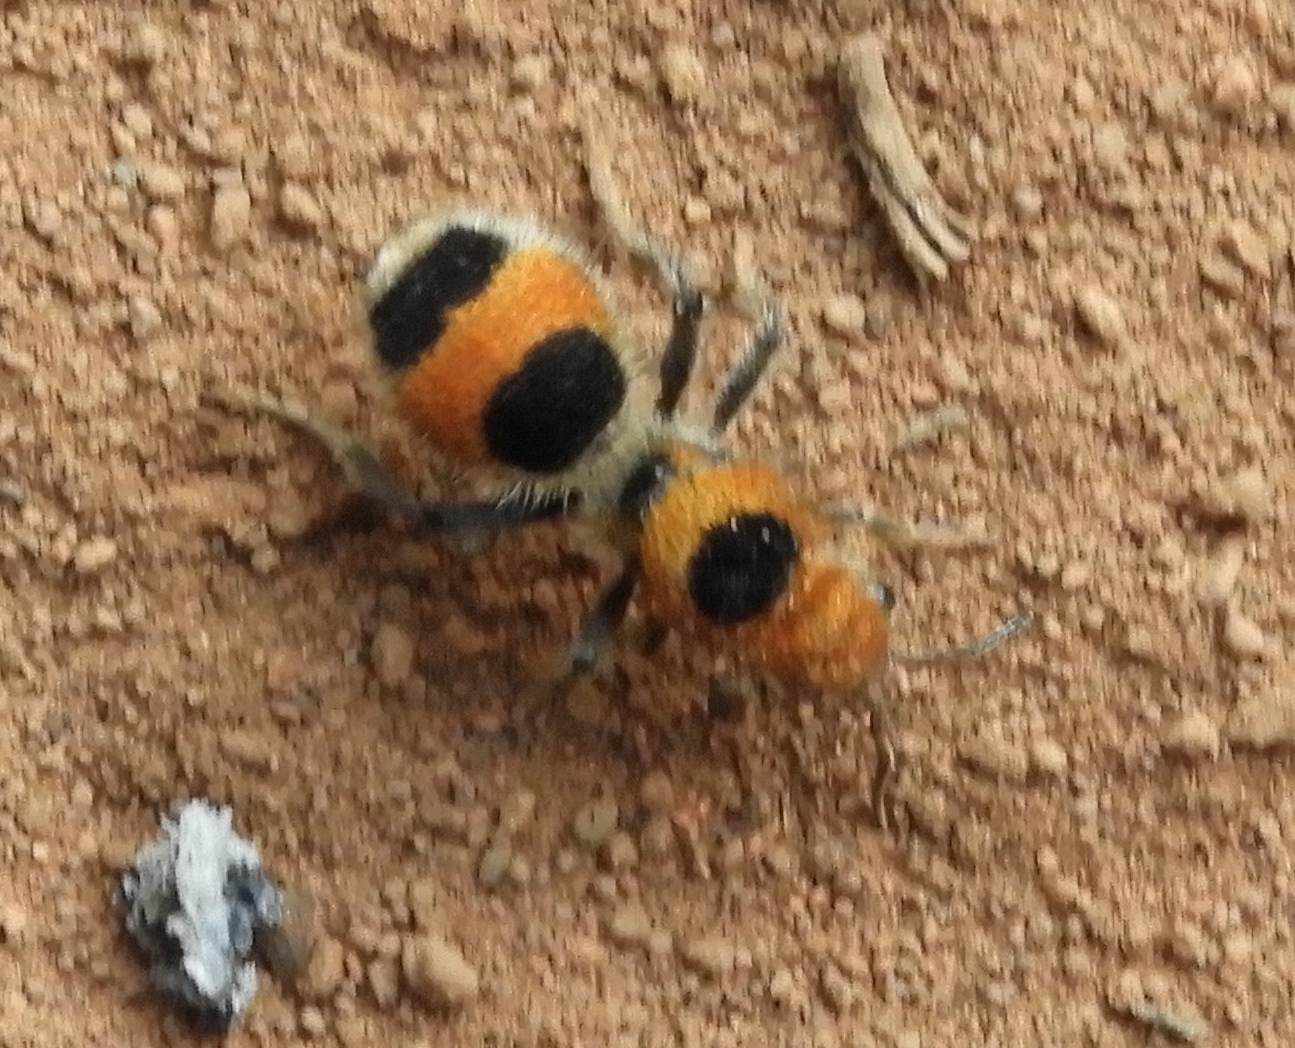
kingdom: Animalia
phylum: Arthropoda
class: Insecta
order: Hymenoptera
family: Mutillidae
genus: Dasymutilla
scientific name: Dasymutilla
